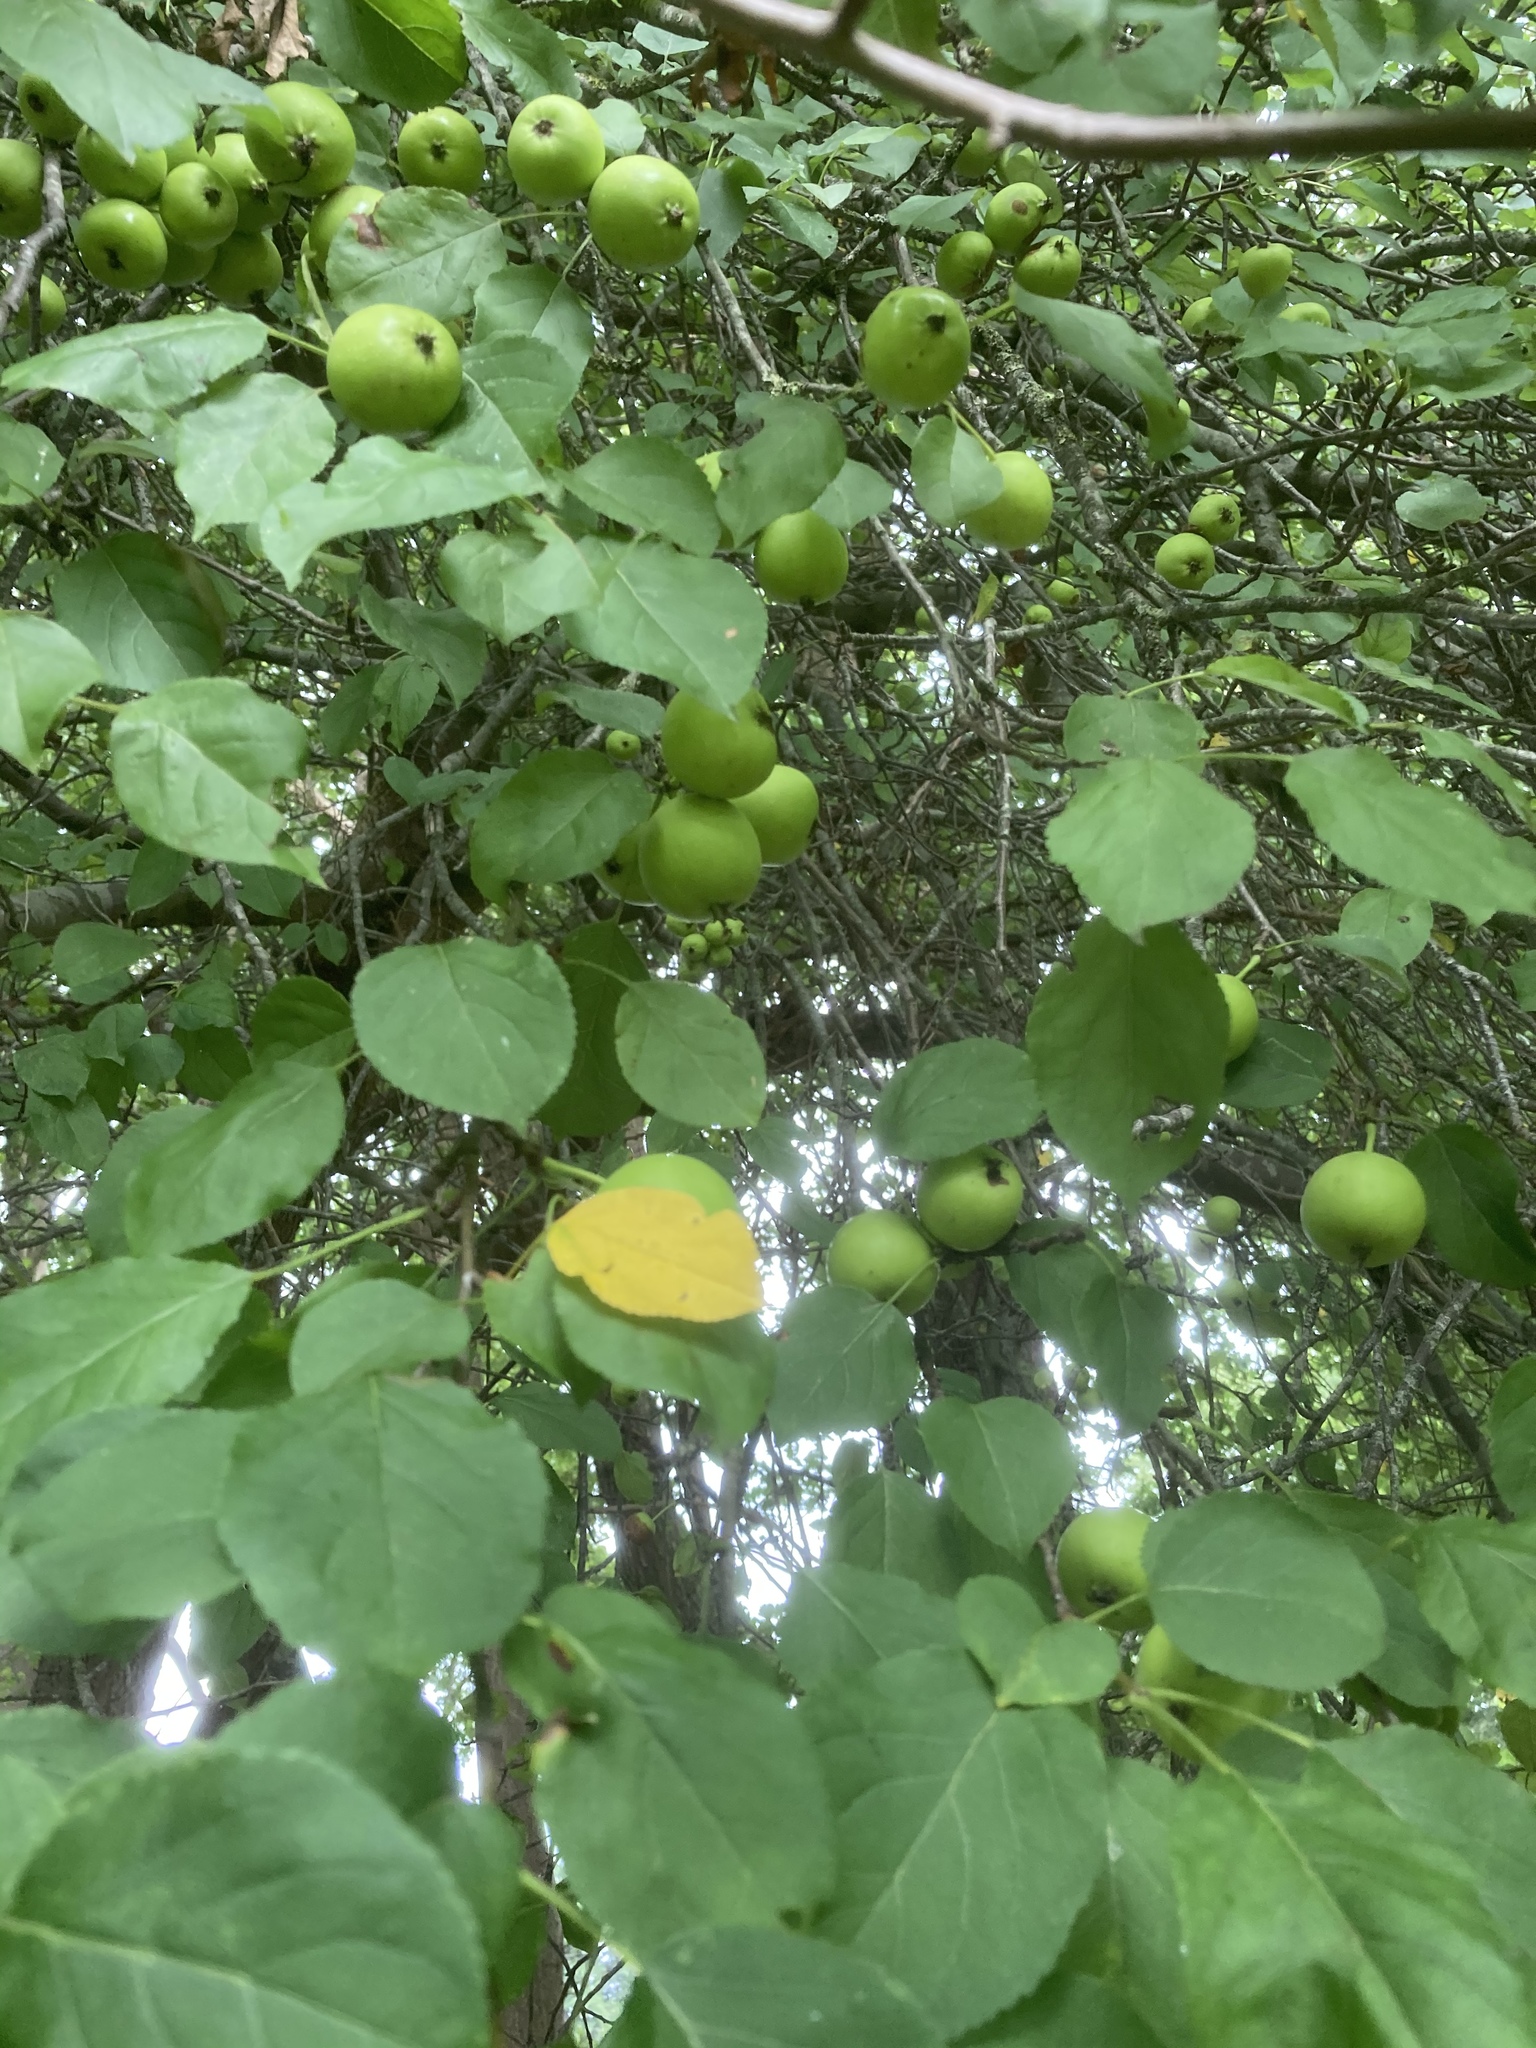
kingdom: Plantae
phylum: Tracheophyta
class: Magnoliopsida
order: Rosales
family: Rosaceae
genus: Malus
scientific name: Malus sylvestris
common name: Crab apple
